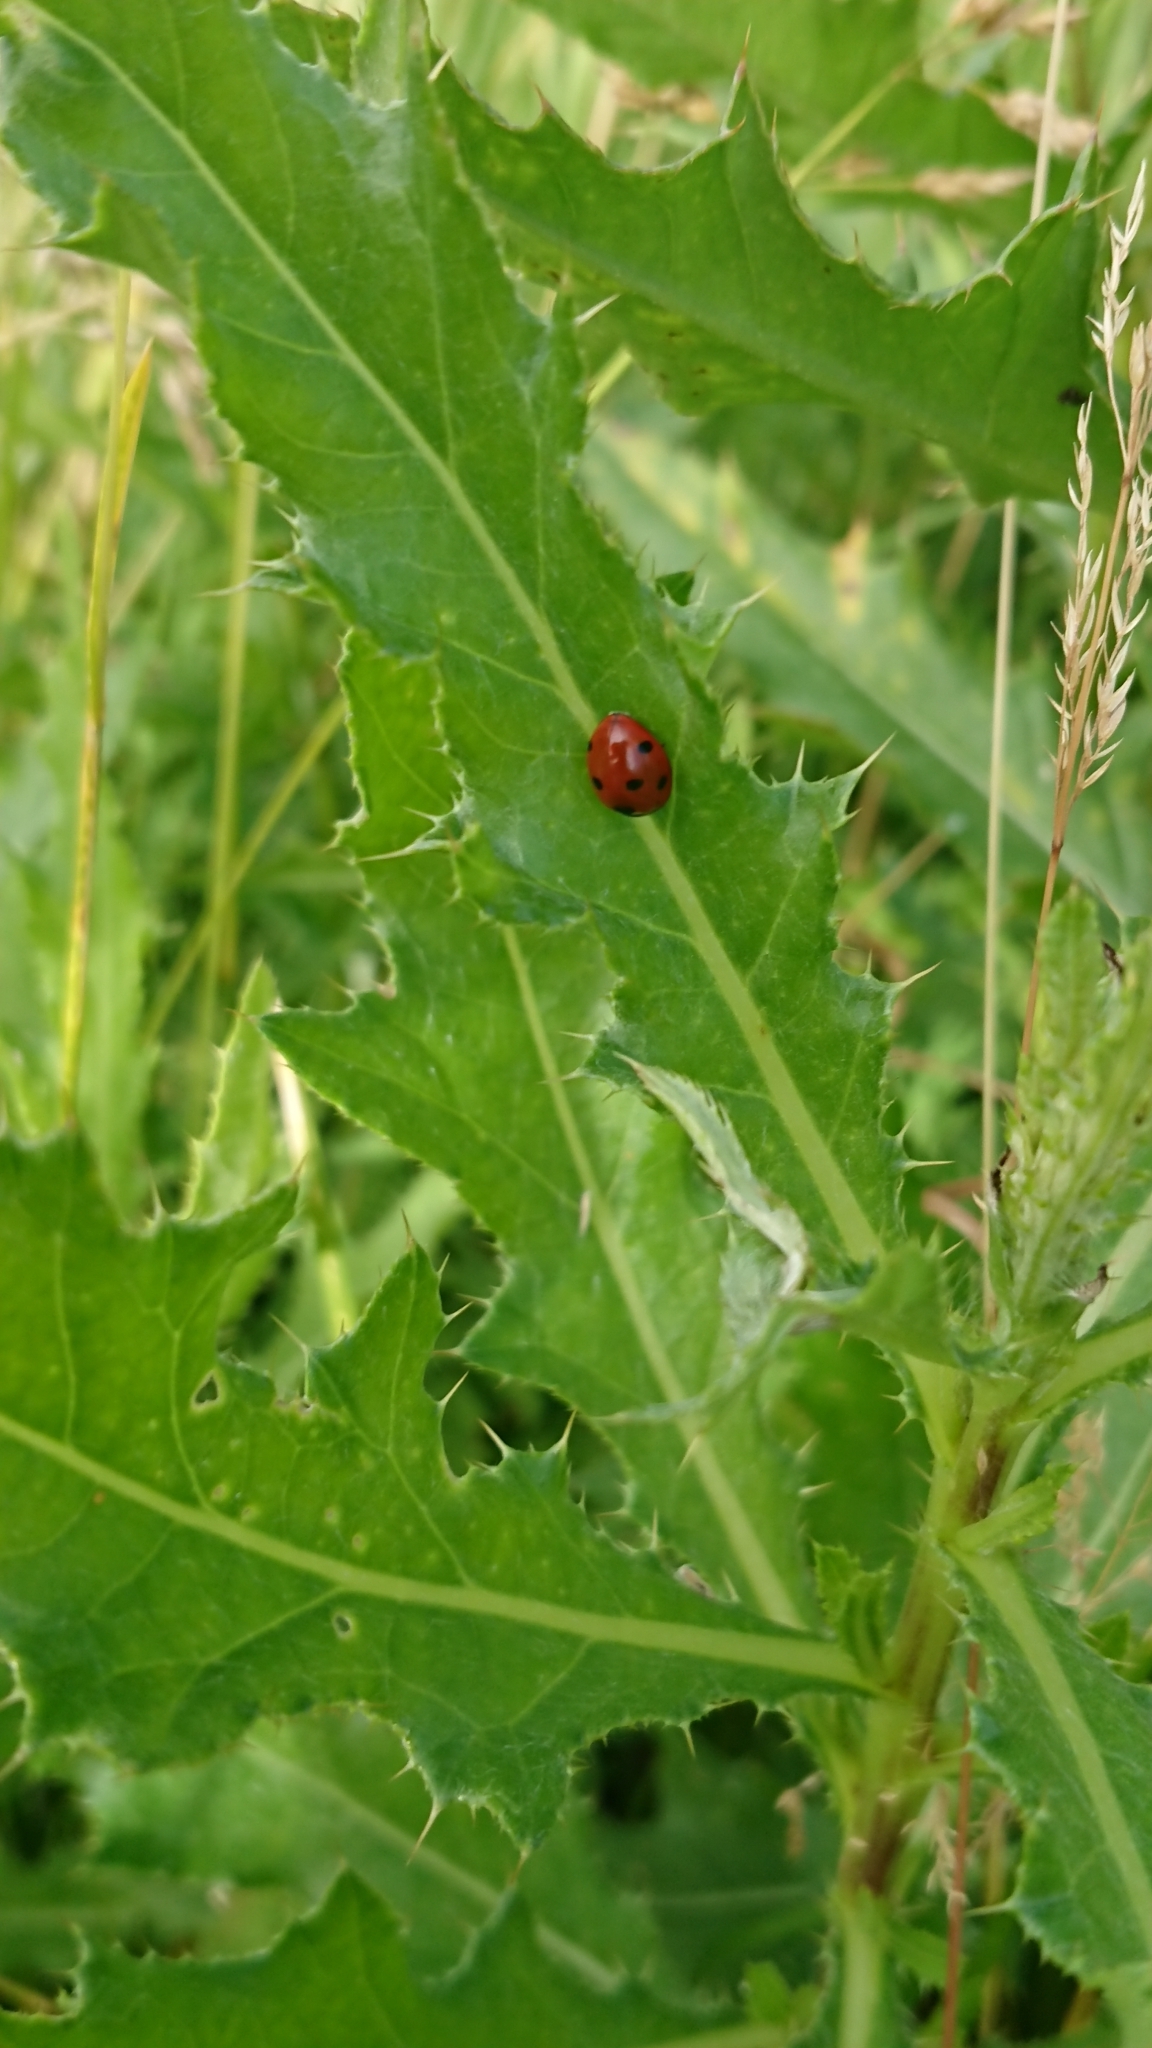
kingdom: Animalia
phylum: Arthropoda
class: Insecta
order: Coleoptera
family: Coccinellidae
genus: Coccinella
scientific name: Coccinella septempunctata
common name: Sevenspotted lady beetle
